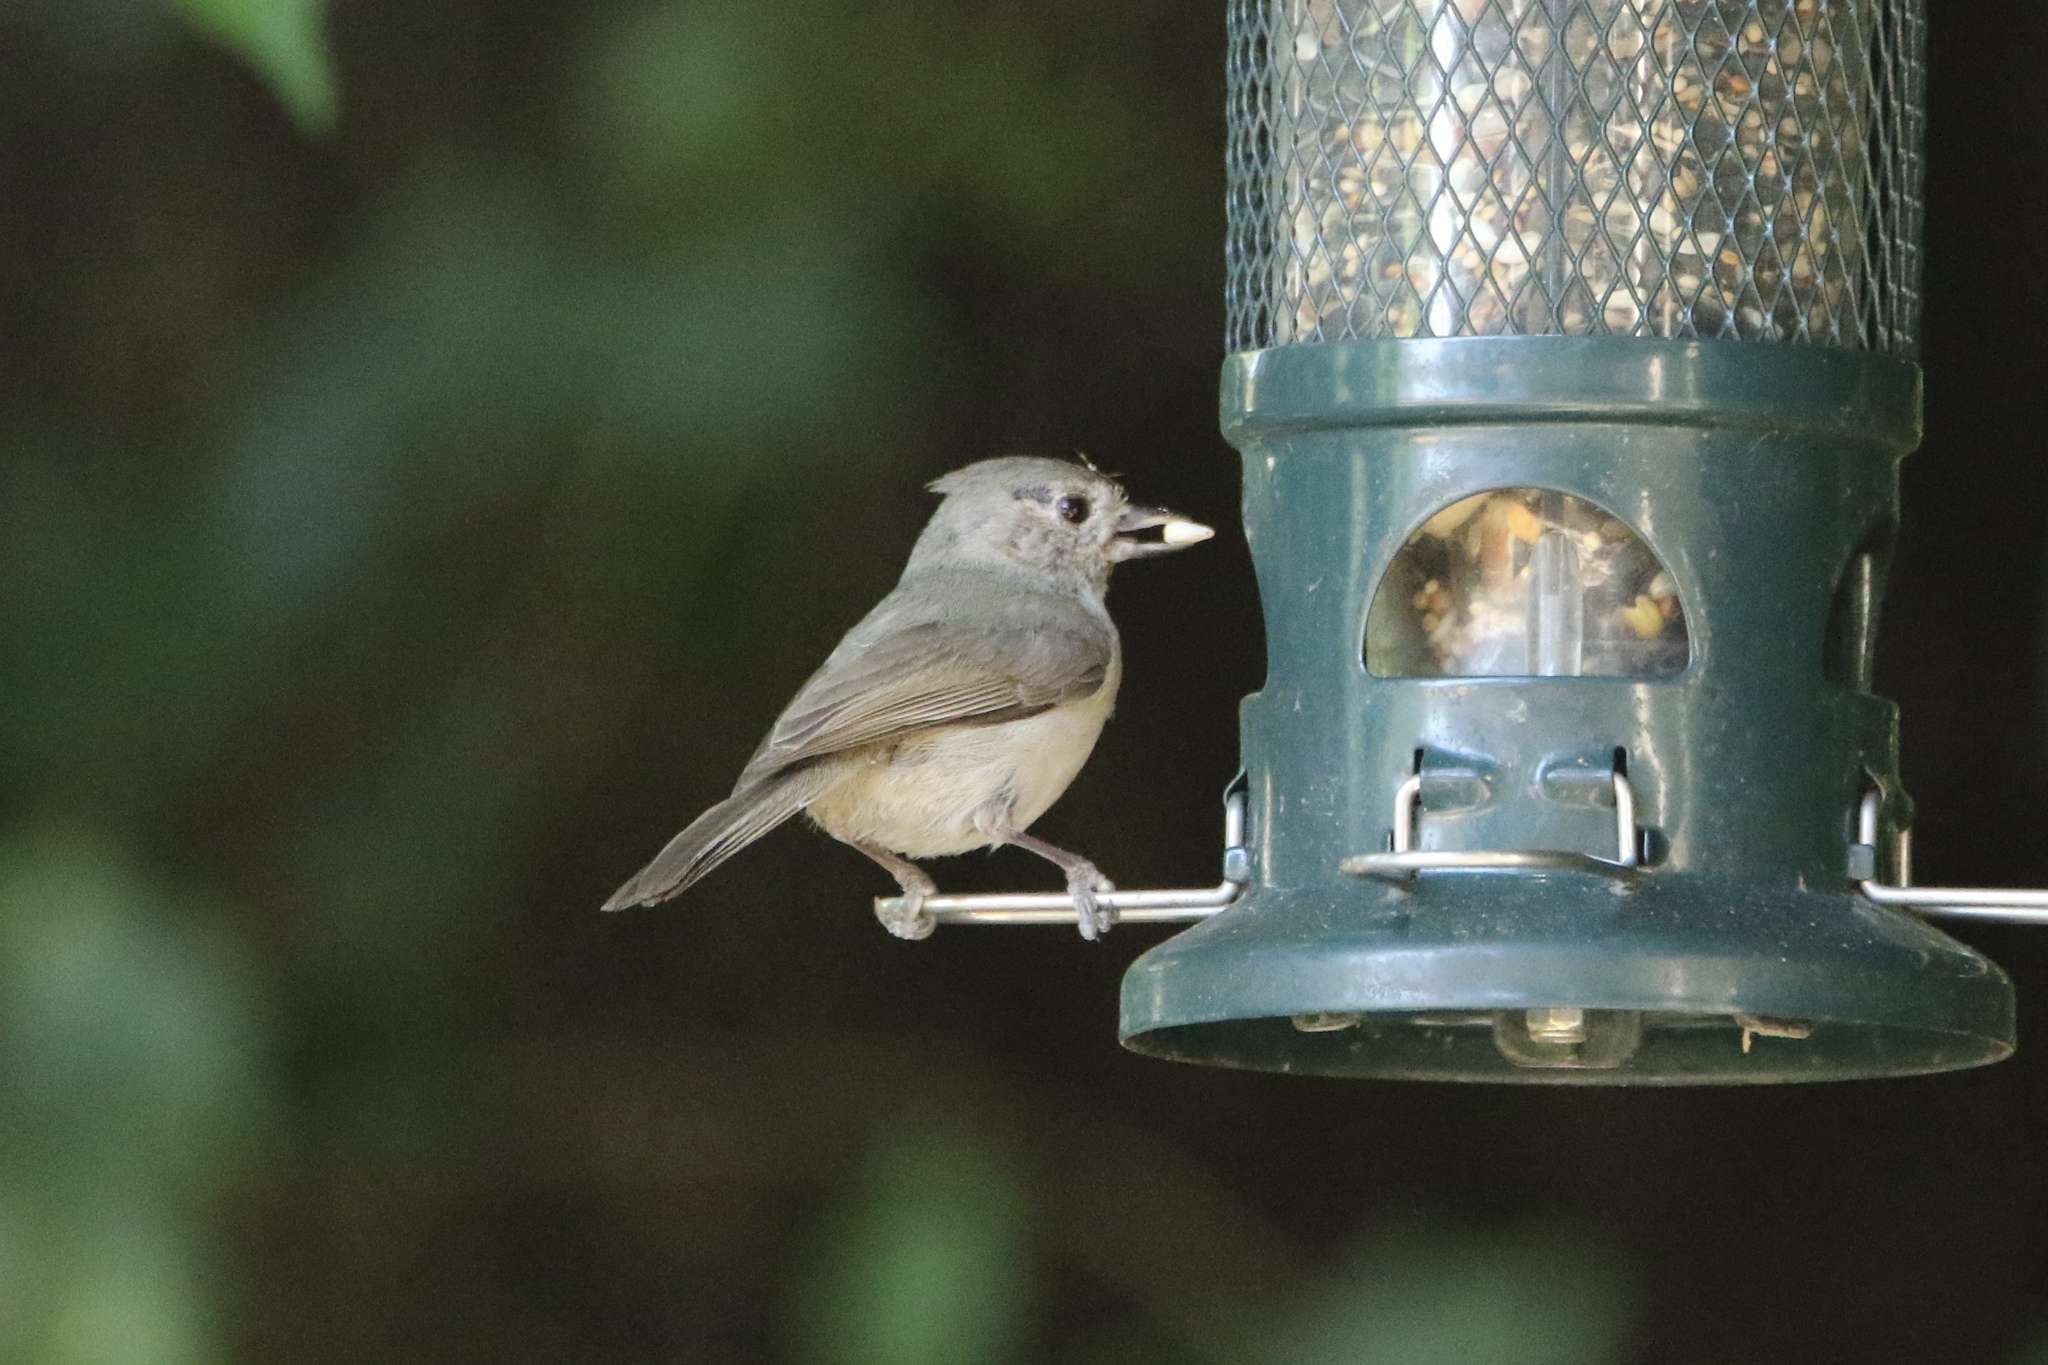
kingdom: Animalia
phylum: Chordata
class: Aves
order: Passeriformes
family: Paridae
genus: Baeolophus
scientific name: Baeolophus inornatus
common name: Oak titmouse
